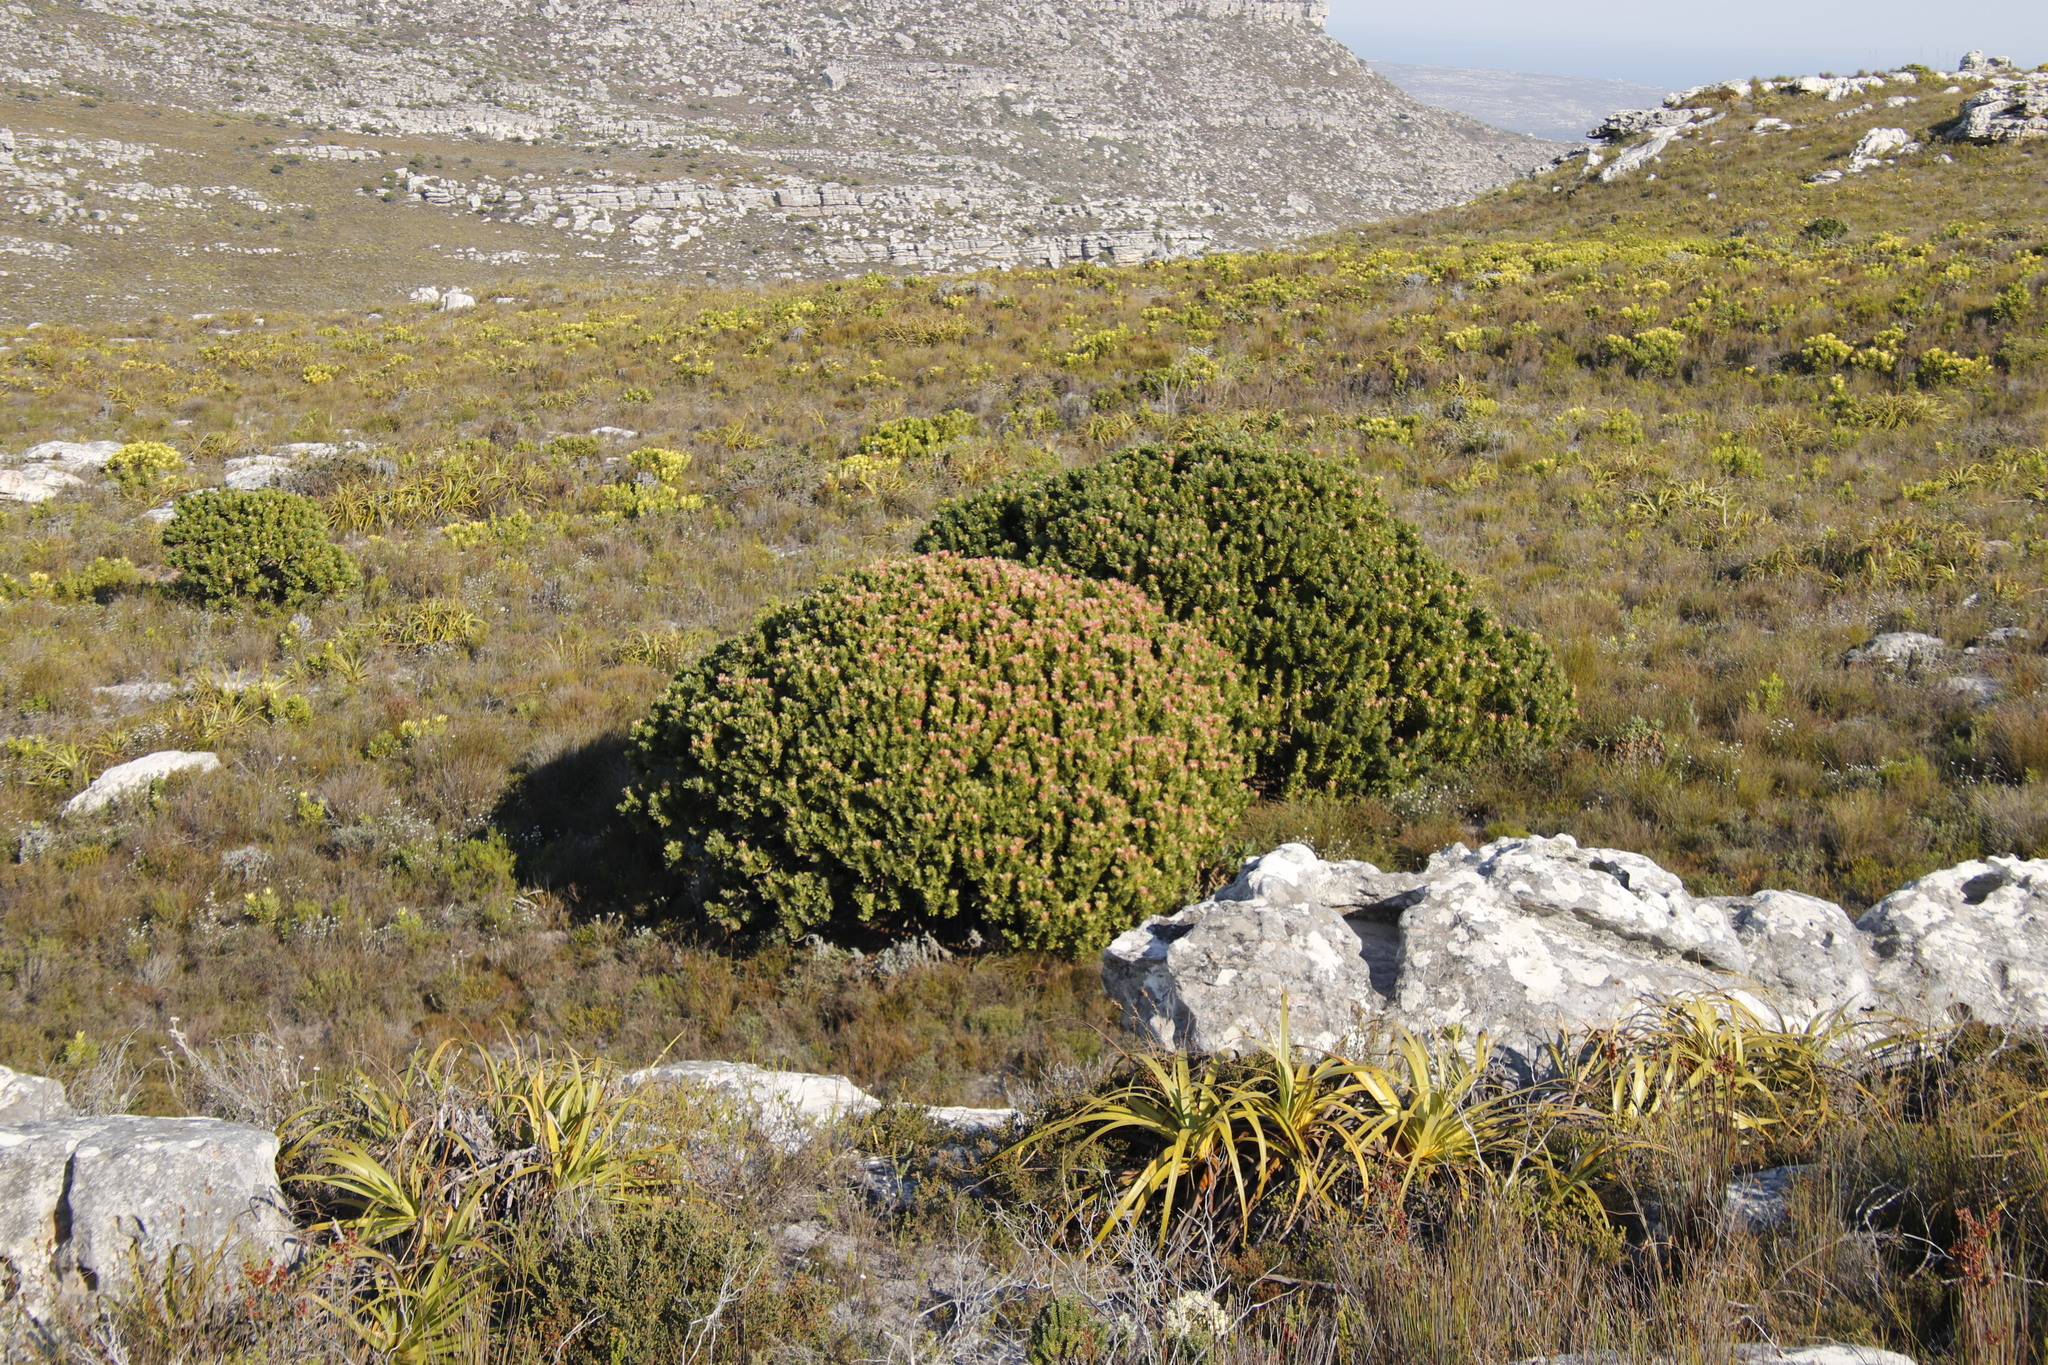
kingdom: Plantae
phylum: Tracheophyta
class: Magnoliopsida
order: Proteales
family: Proteaceae
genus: Mimetes
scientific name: Mimetes fimbriifolius
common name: Fringed bottlebrush
